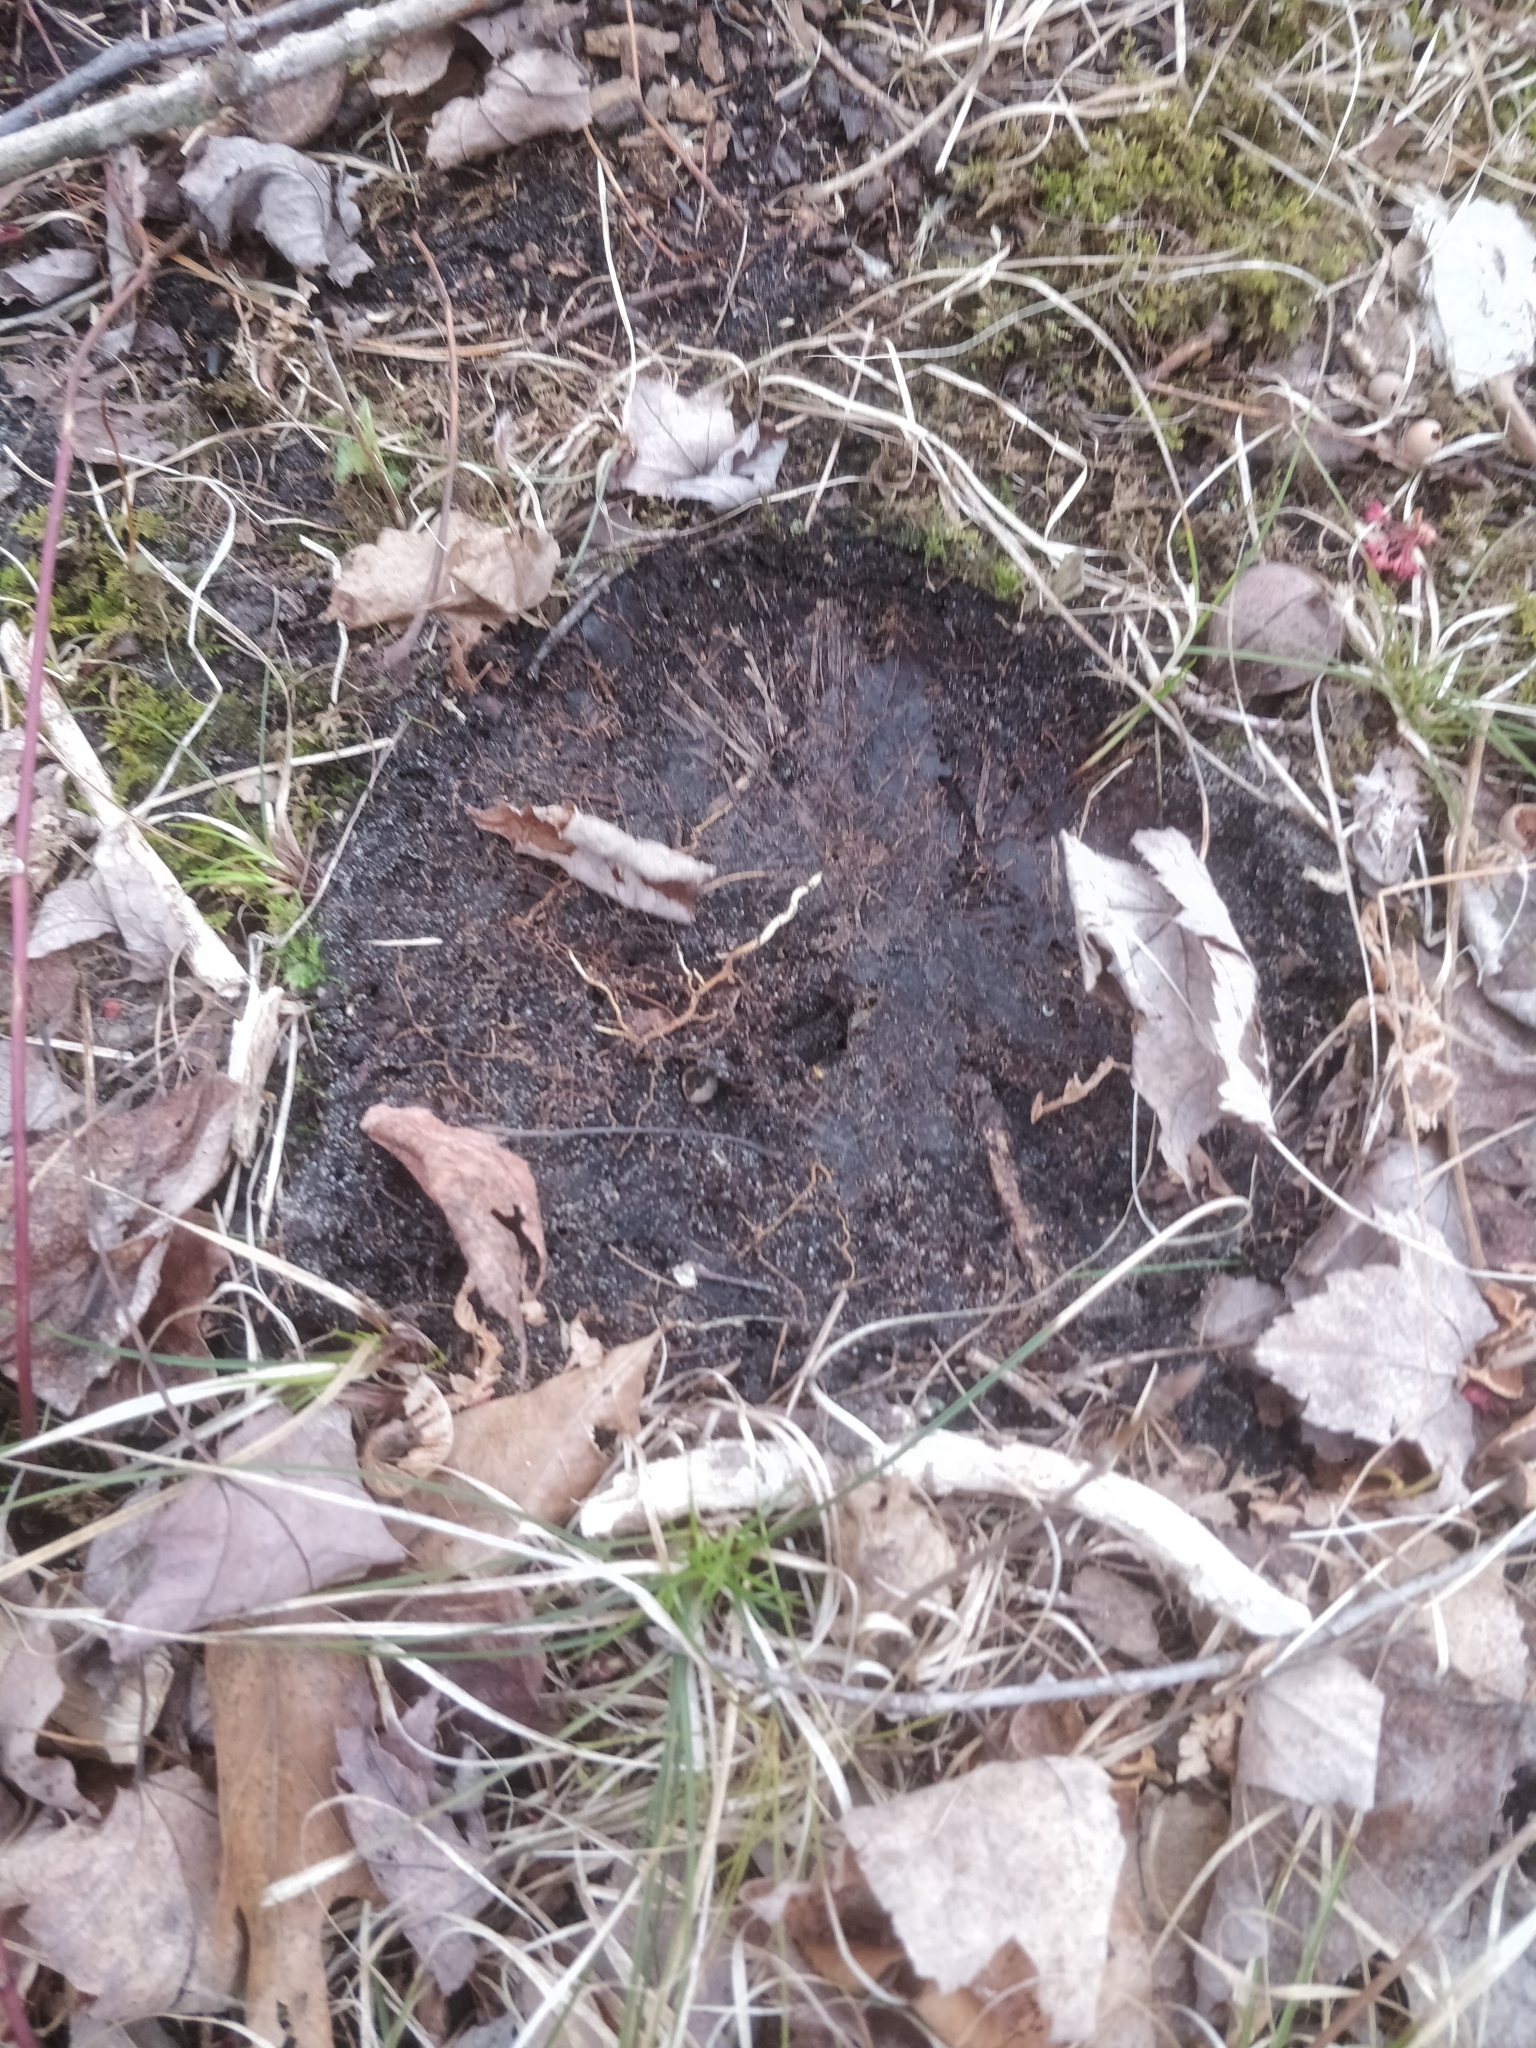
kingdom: Animalia
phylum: Arthropoda
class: Insecta
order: Hymenoptera
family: Formicidae
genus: Lasius
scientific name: Lasius nearcticus
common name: New world fuzzy ant
